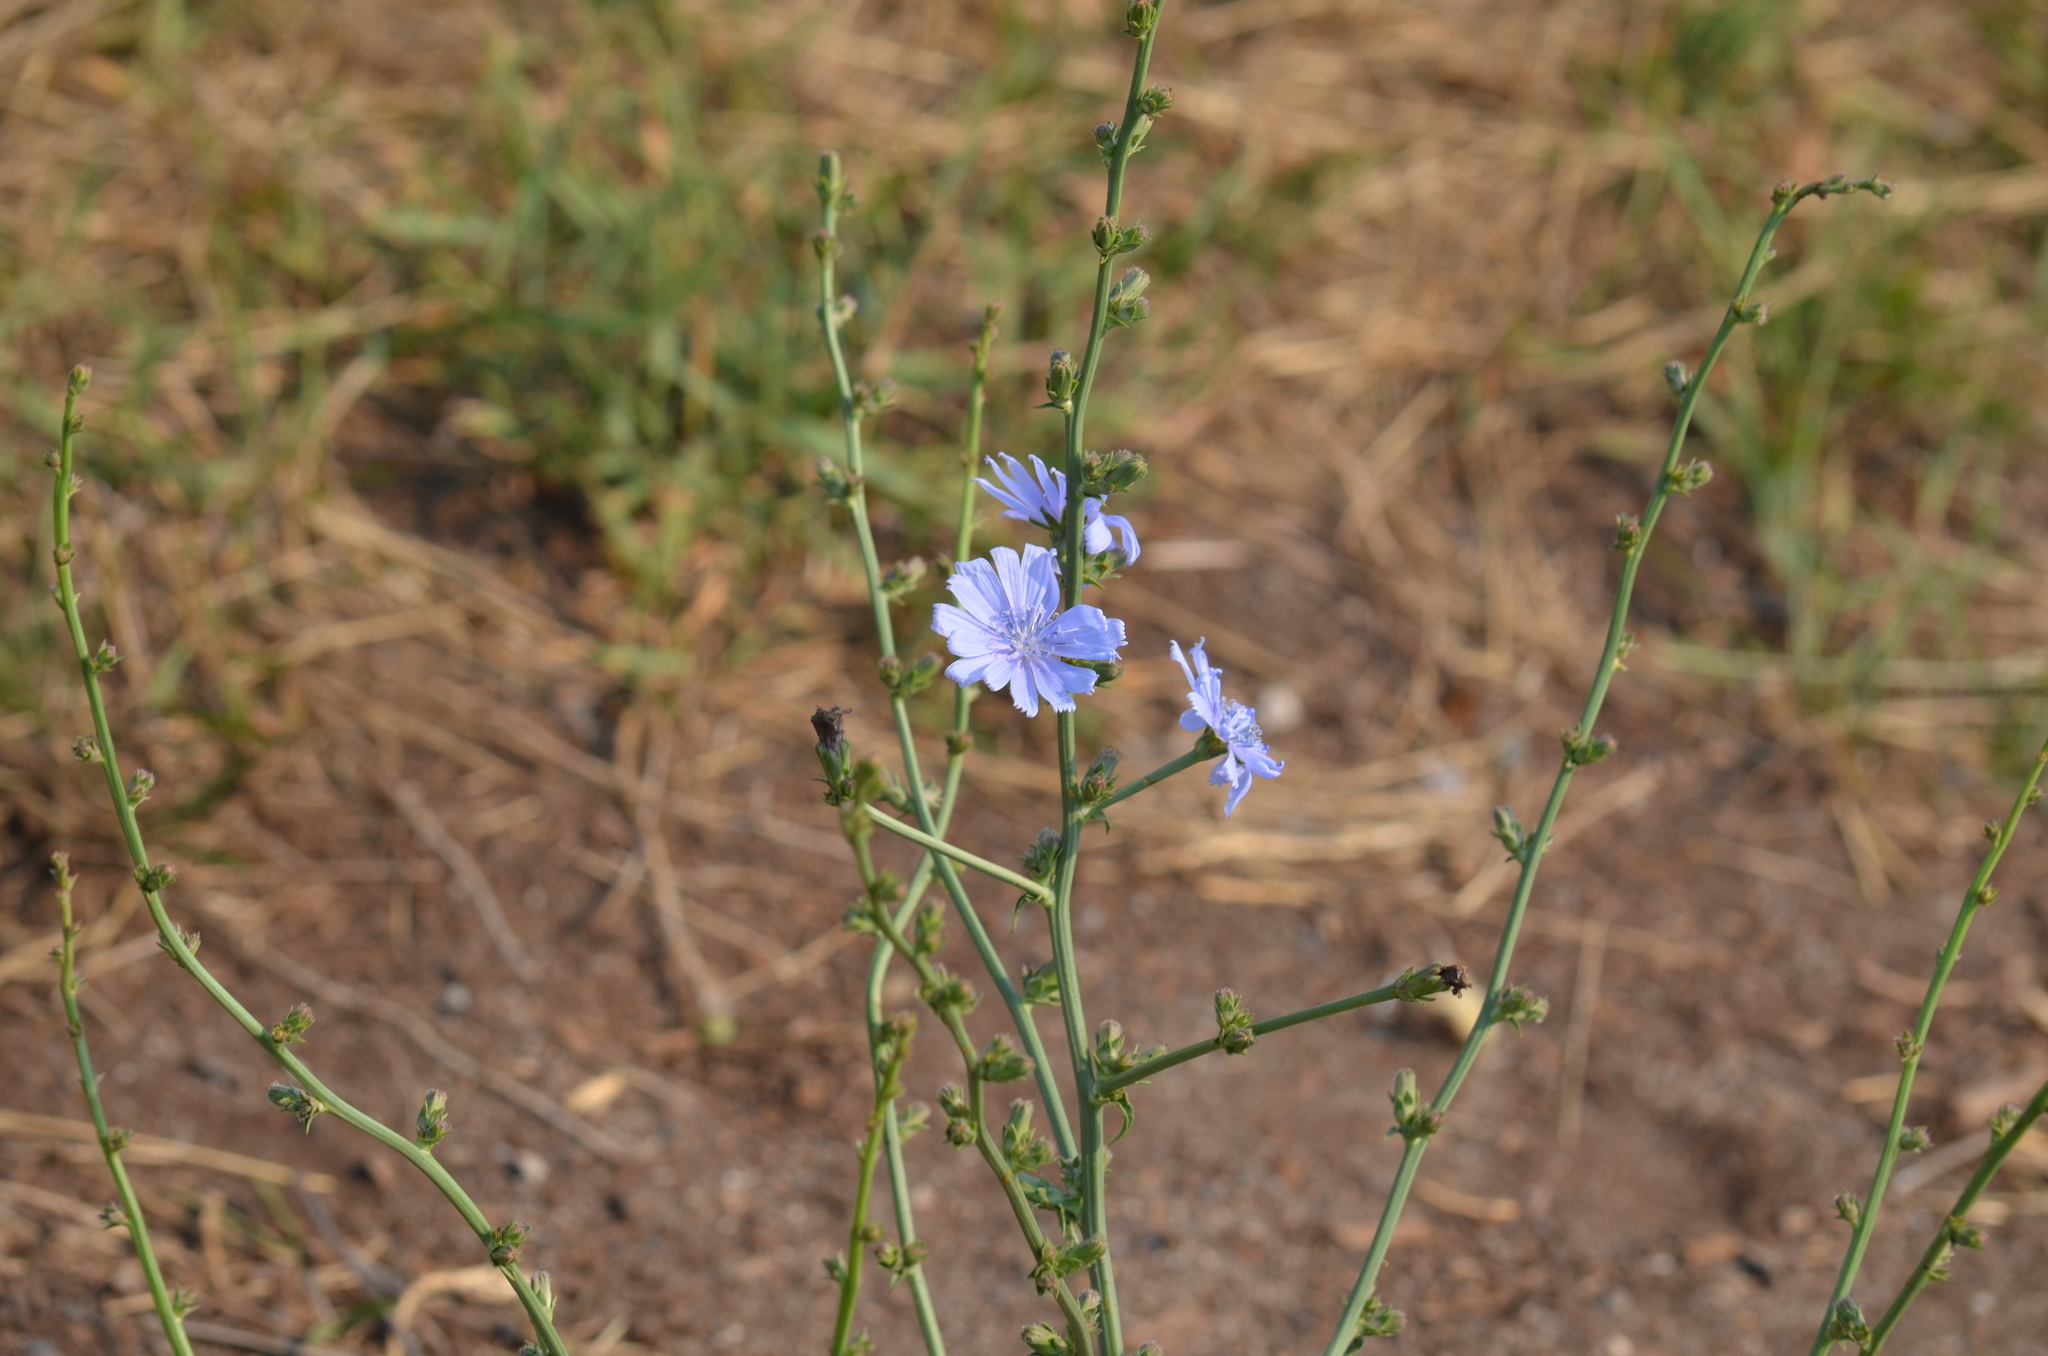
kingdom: Plantae
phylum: Tracheophyta
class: Magnoliopsida
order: Asterales
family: Asteraceae
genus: Cichorium
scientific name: Cichorium intybus
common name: Chicory
